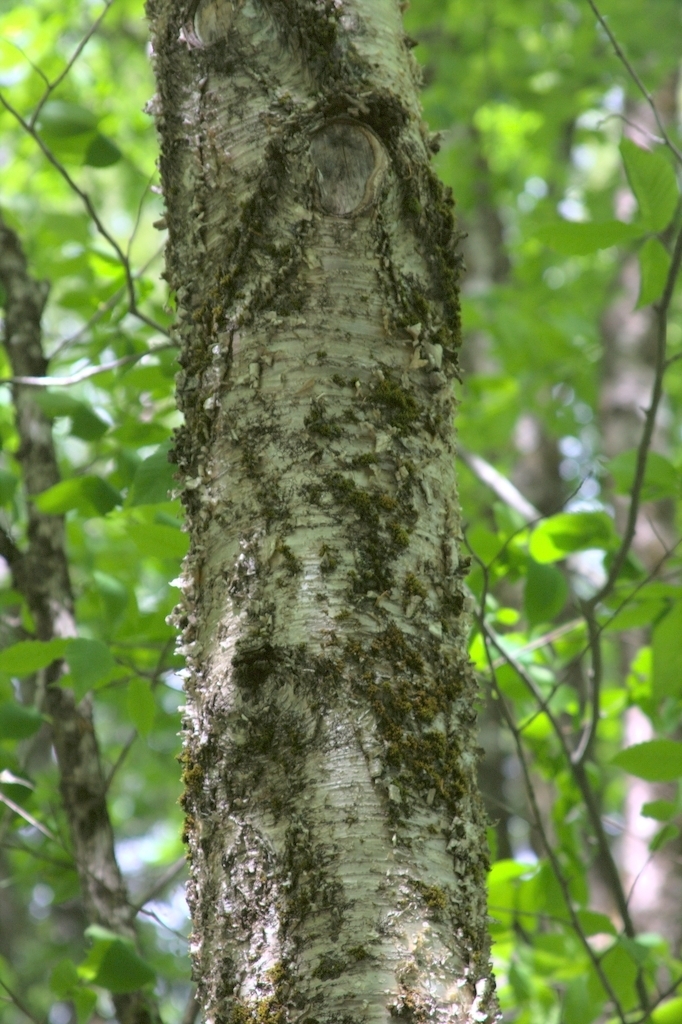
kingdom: Plantae
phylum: Bryophyta
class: Bryopsida
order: Orthotrichales
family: Orthotrichaceae
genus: Ulota
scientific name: Ulota crispa
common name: Crisped pincushion moss
